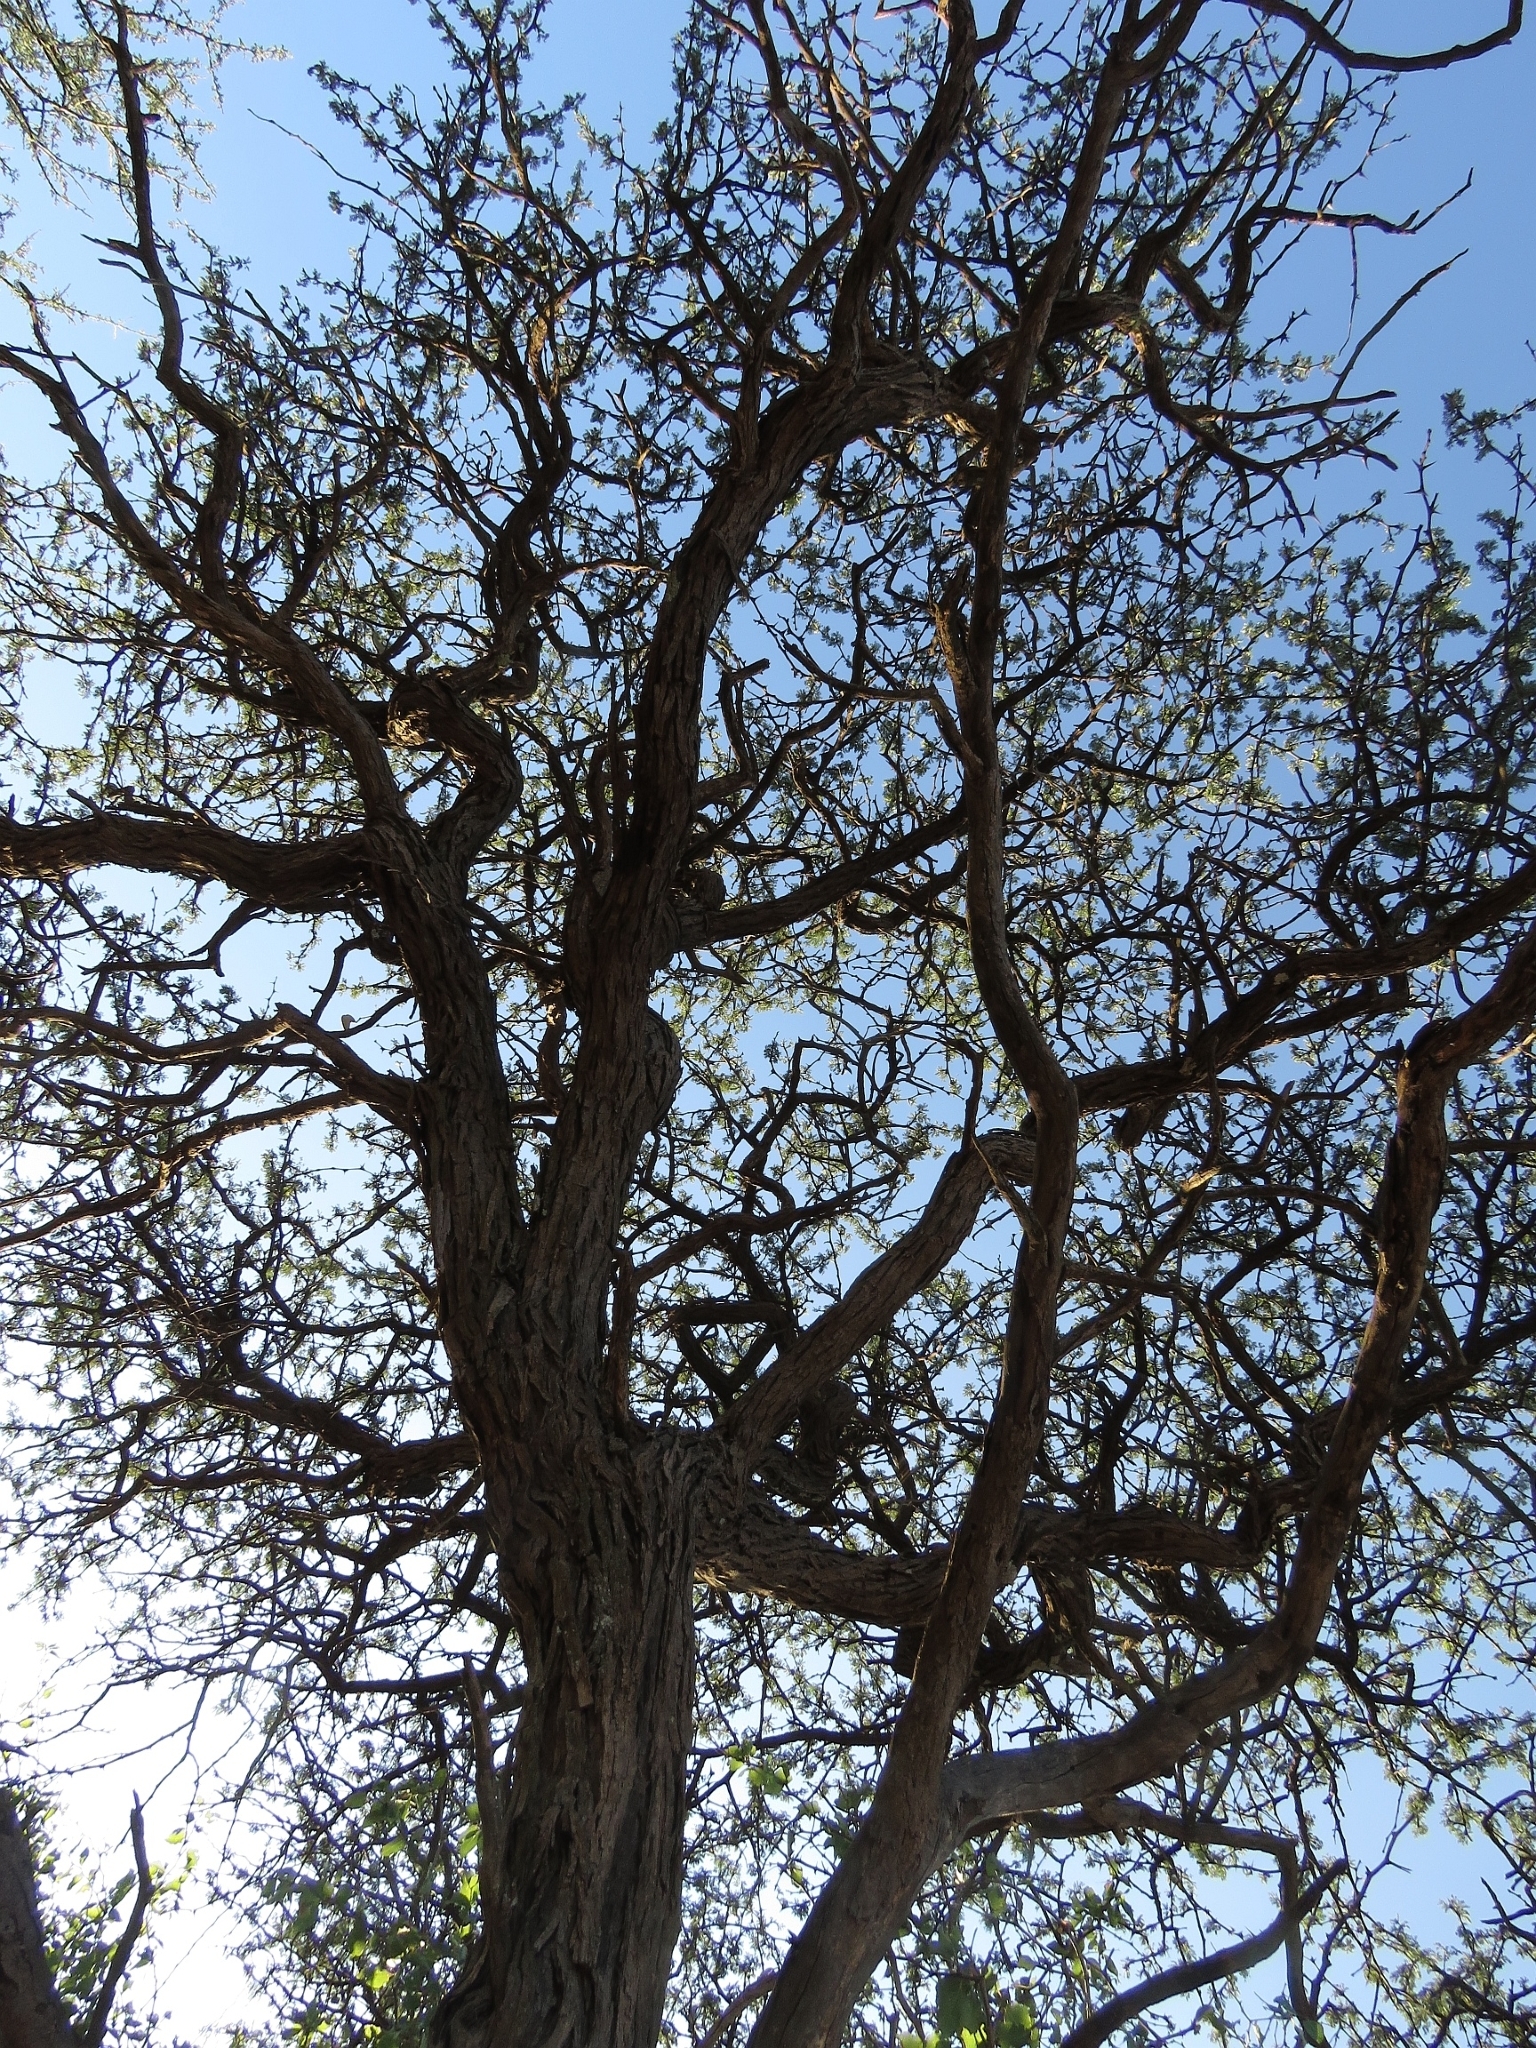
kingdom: Plantae
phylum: Tracheophyta
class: Magnoliopsida
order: Fabales
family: Fabaceae
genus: Vachellia
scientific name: Vachellia erioloba
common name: Camel thorn
